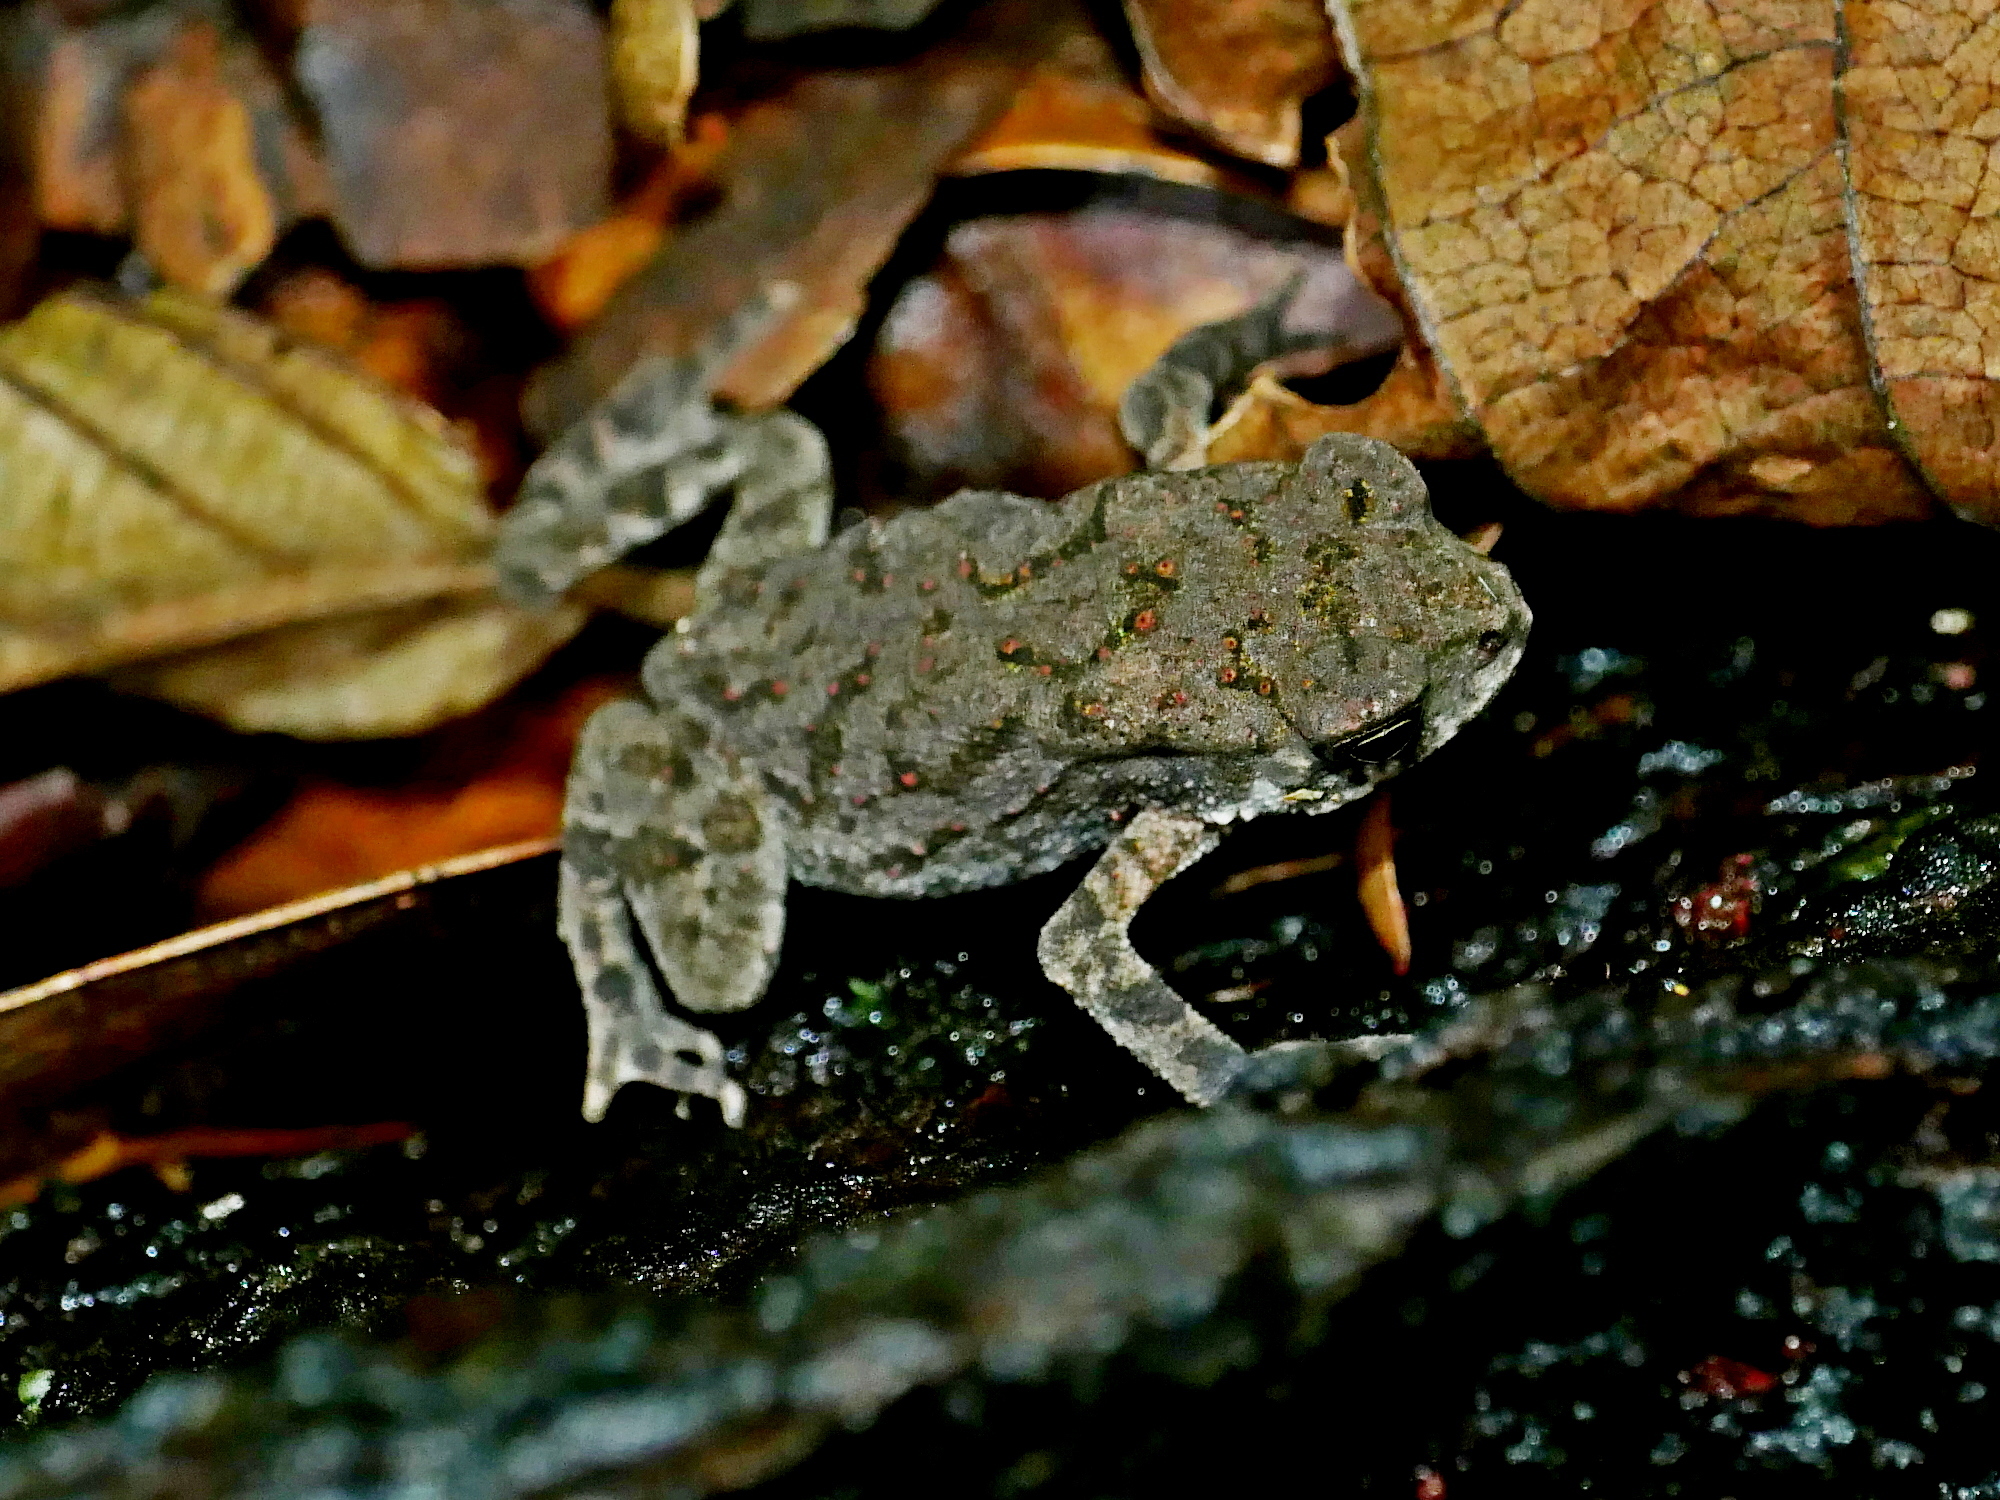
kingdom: Animalia
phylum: Chordata
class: Amphibia
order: Anura
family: Bufonidae
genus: Bufo
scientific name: Bufo bankorensis
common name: Bankor toad
